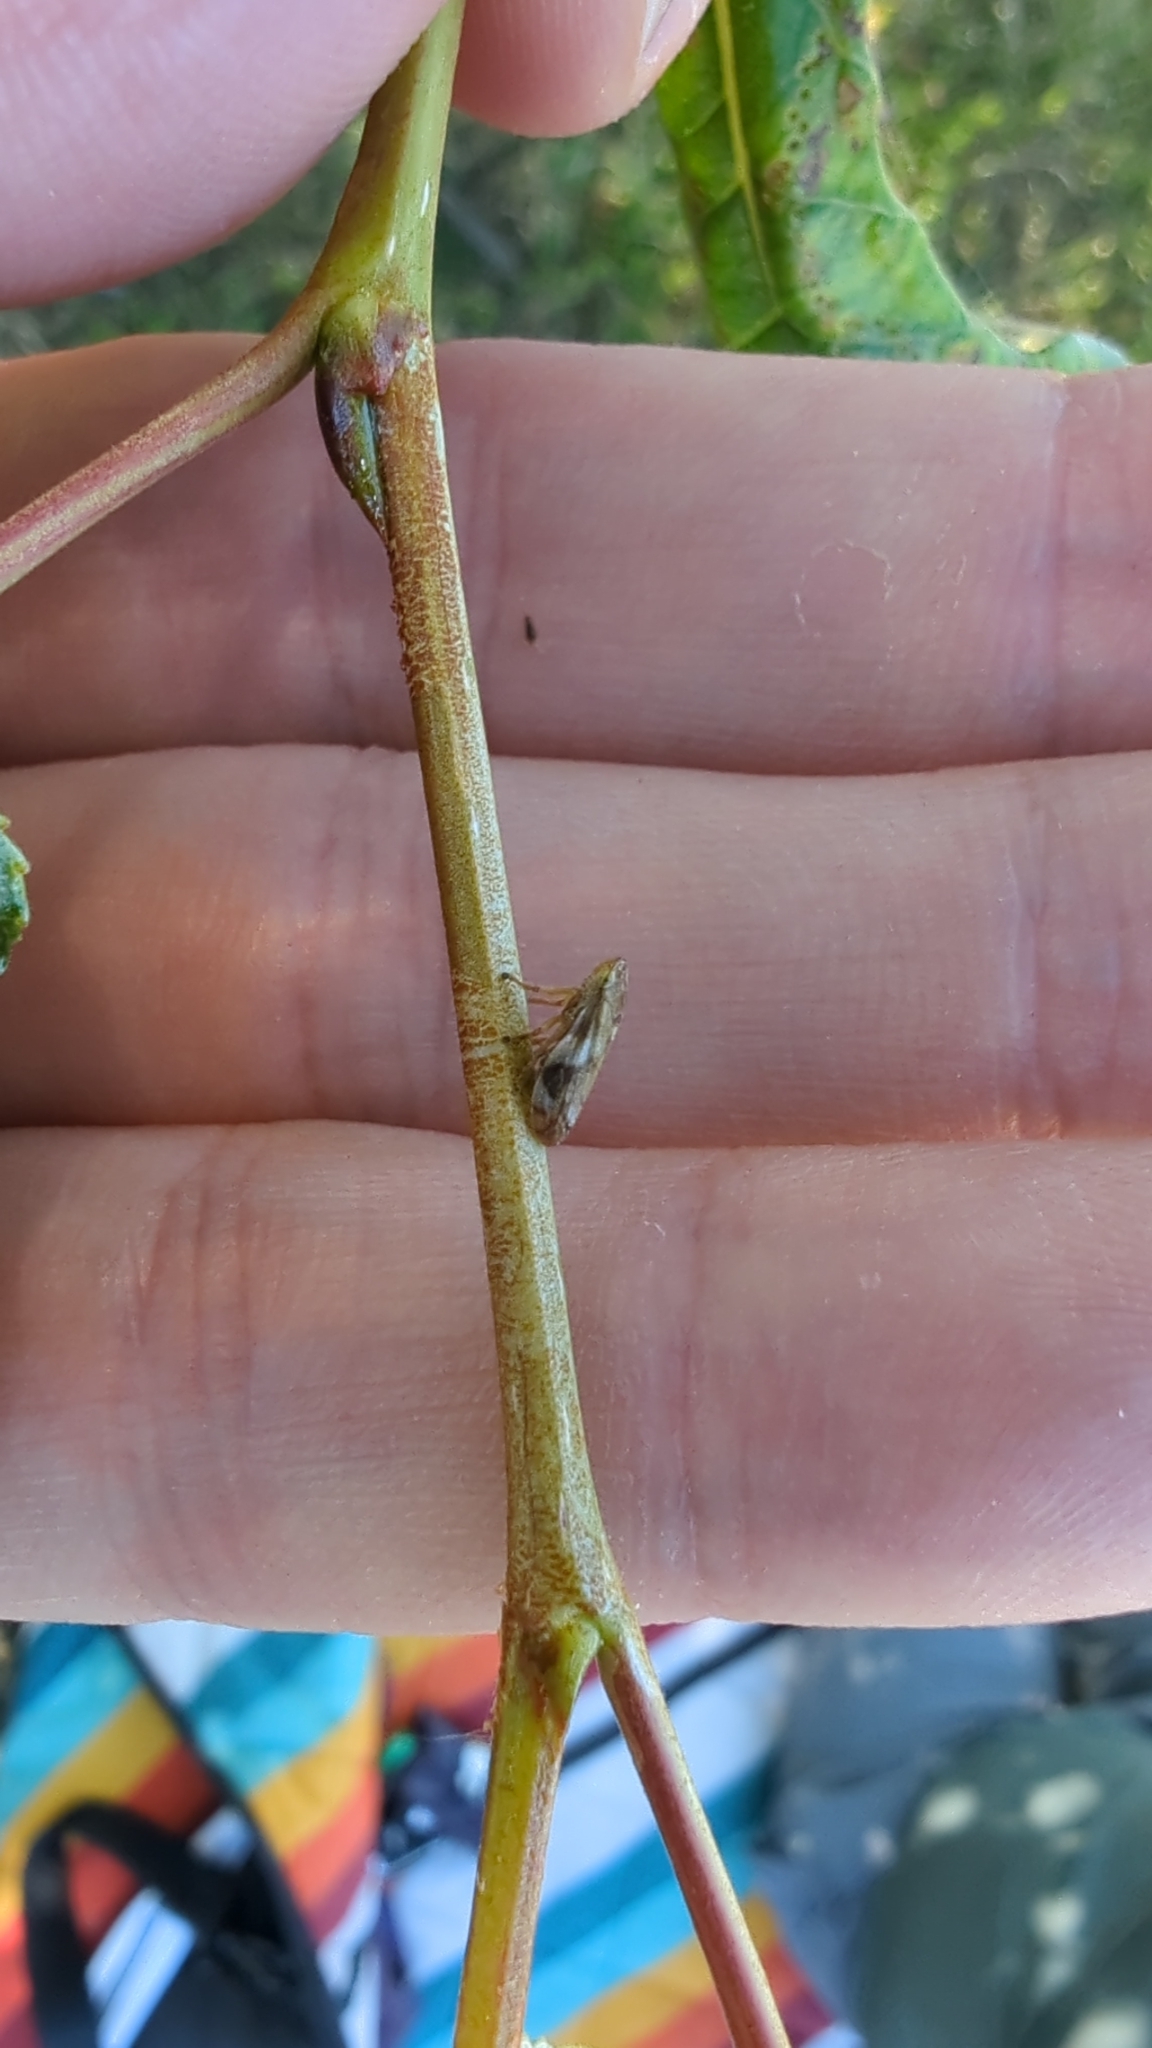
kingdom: Animalia
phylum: Arthropoda
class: Insecta
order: Hemiptera
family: Aphrophoridae
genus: Philaenus
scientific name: Philaenus spumarius
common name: Meadow spittlebug
